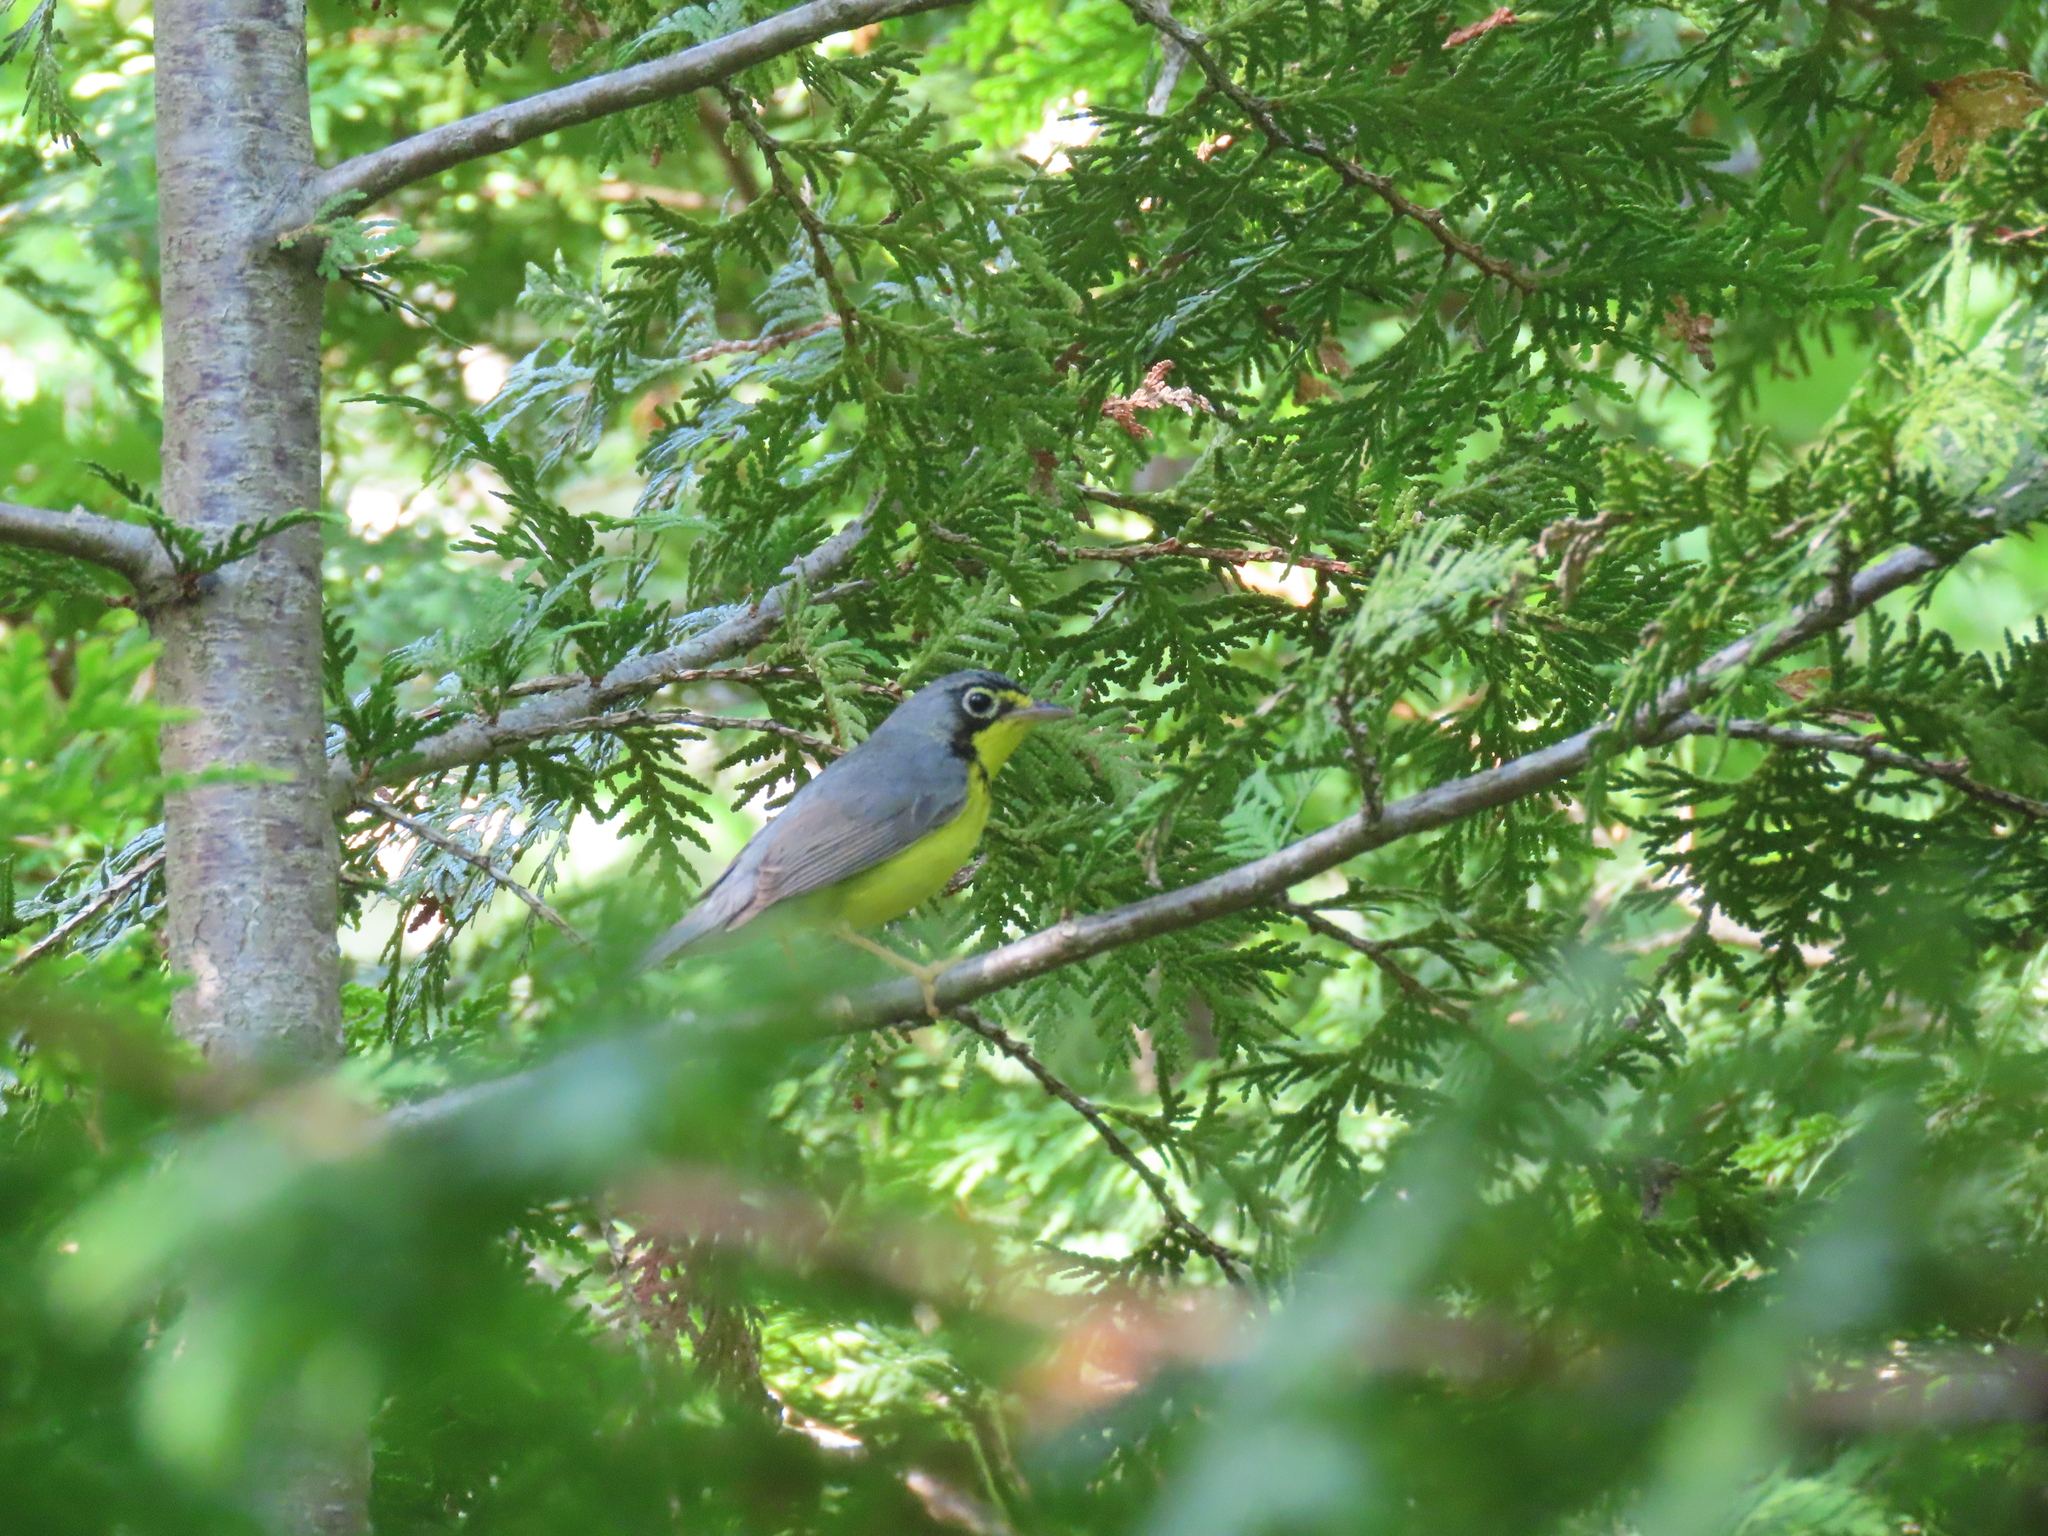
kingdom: Animalia
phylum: Chordata
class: Aves
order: Passeriformes
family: Parulidae
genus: Cardellina
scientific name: Cardellina canadensis
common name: Canada warbler
